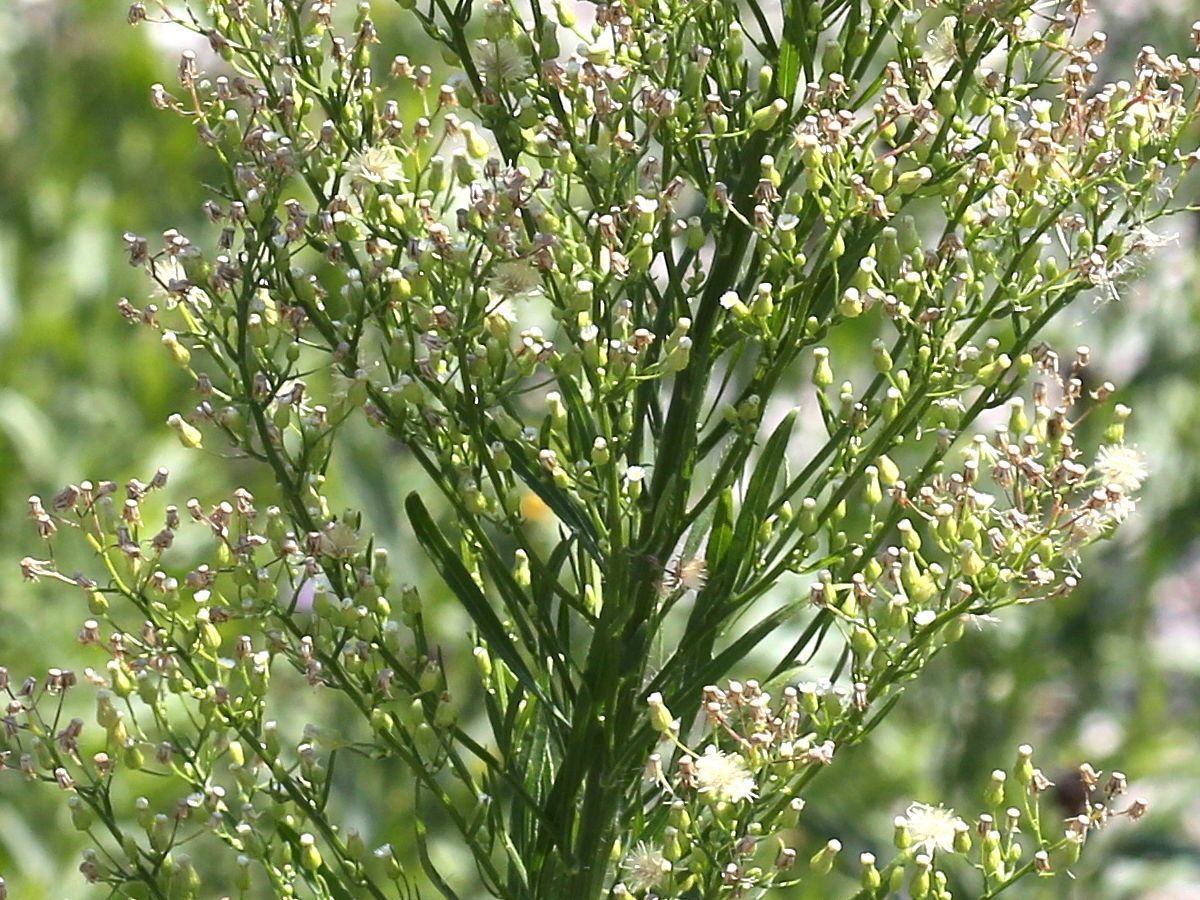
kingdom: Plantae
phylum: Tracheophyta
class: Magnoliopsida
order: Asterales
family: Asteraceae
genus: Erigeron
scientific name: Erigeron canadensis
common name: Canadian fleabane
